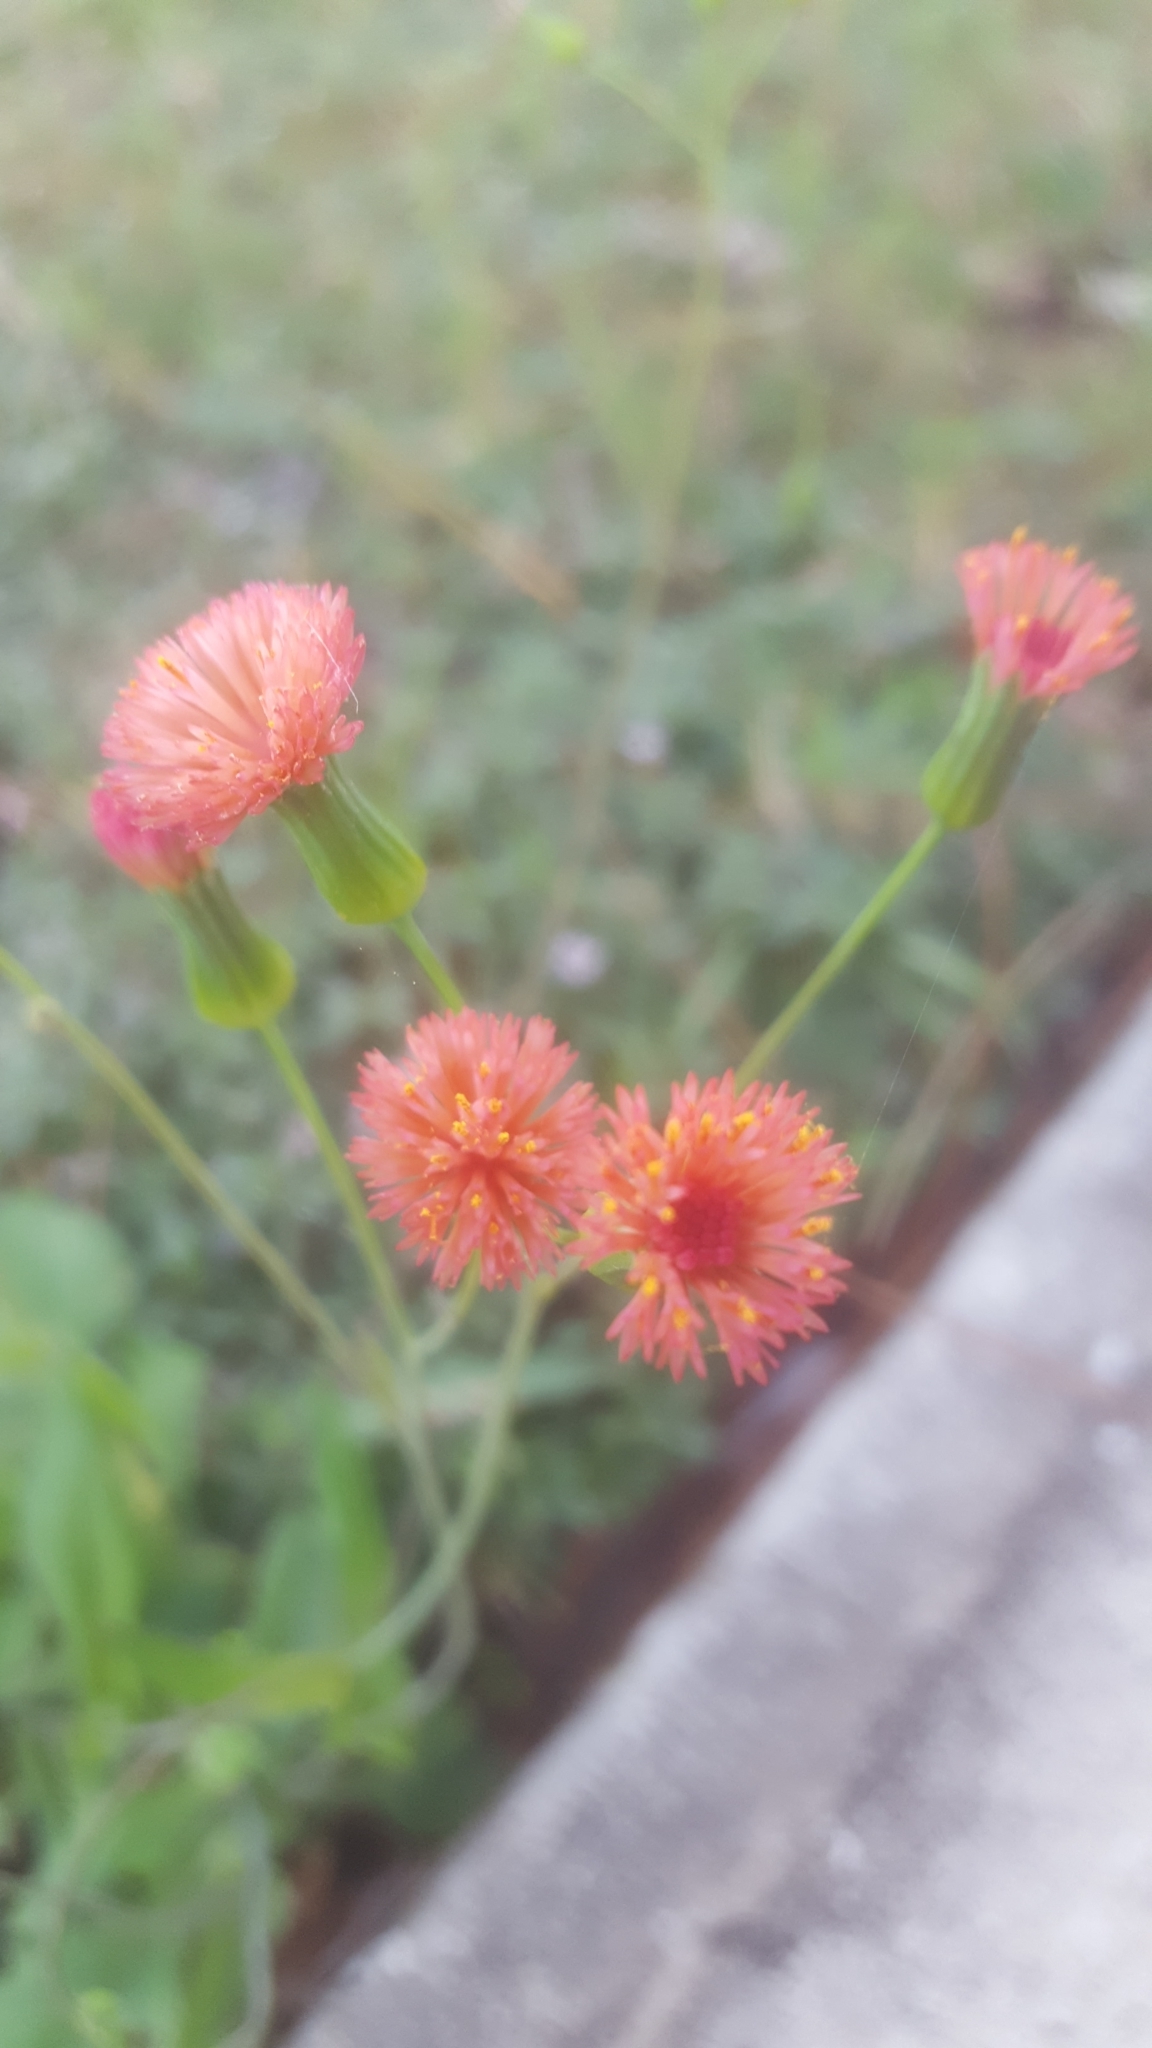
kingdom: Plantae
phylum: Tracheophyta
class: Magnoliopsida
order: Asterales
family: Asteraceae
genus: Emilia
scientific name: Emilia fosbergii
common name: Florida tasselflower
